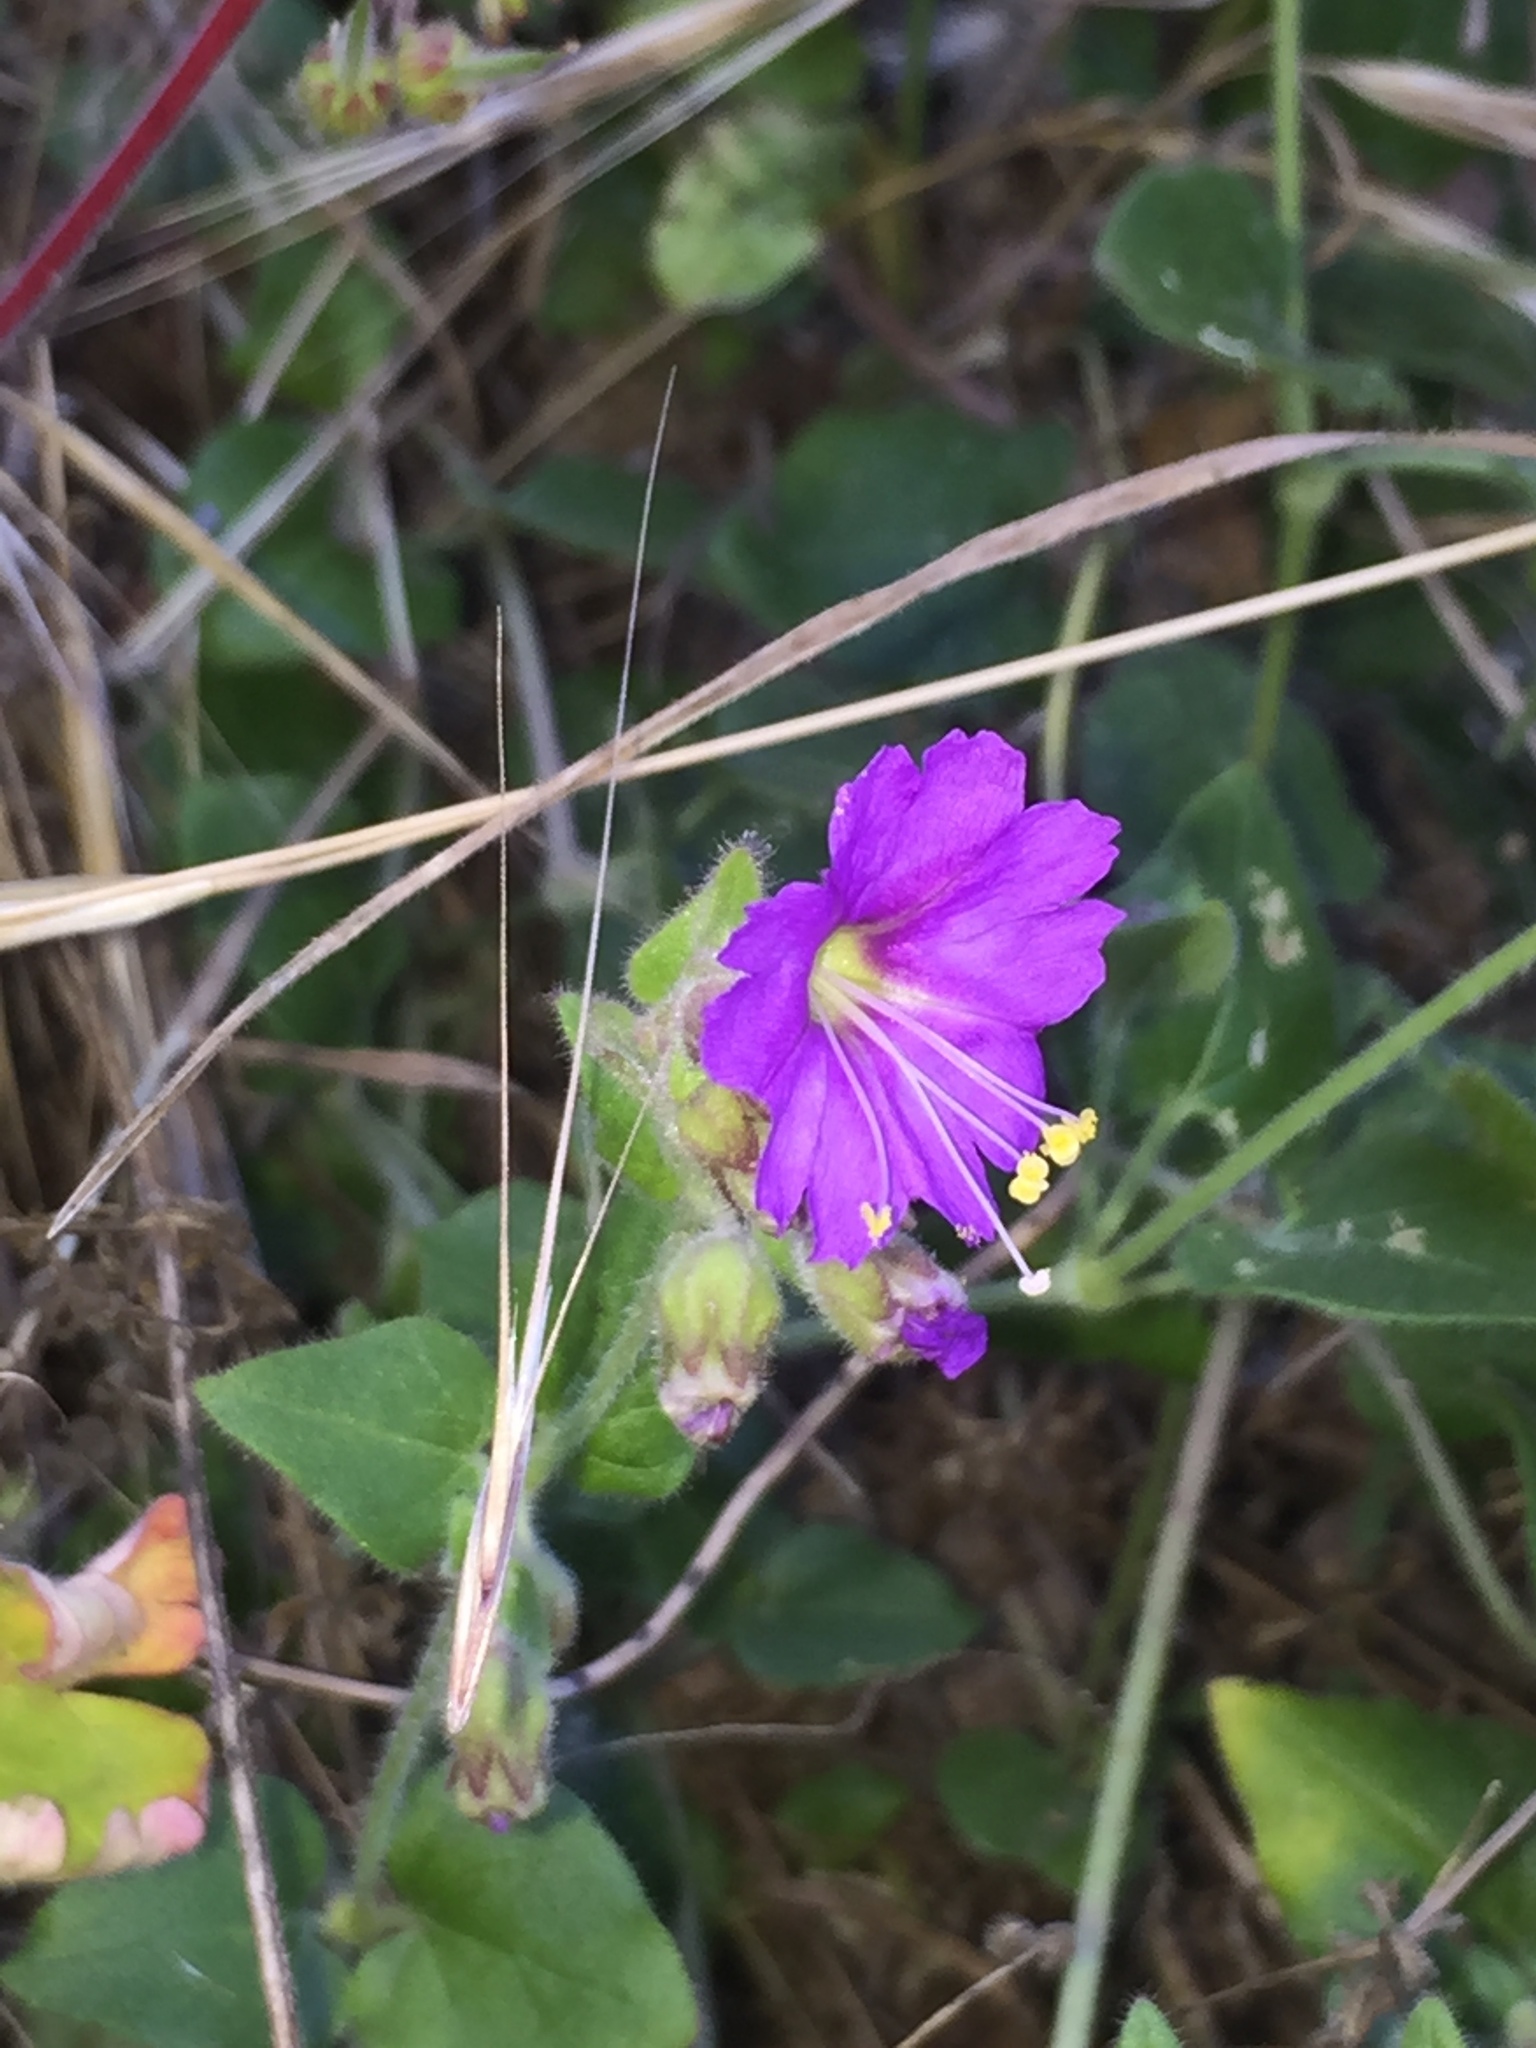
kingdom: Plantae
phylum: Tracheophyta
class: Magnoliopsida
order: Caryophyllales
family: Nyctaginaceae
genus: Mirabilis
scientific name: Mirabilis laevis
